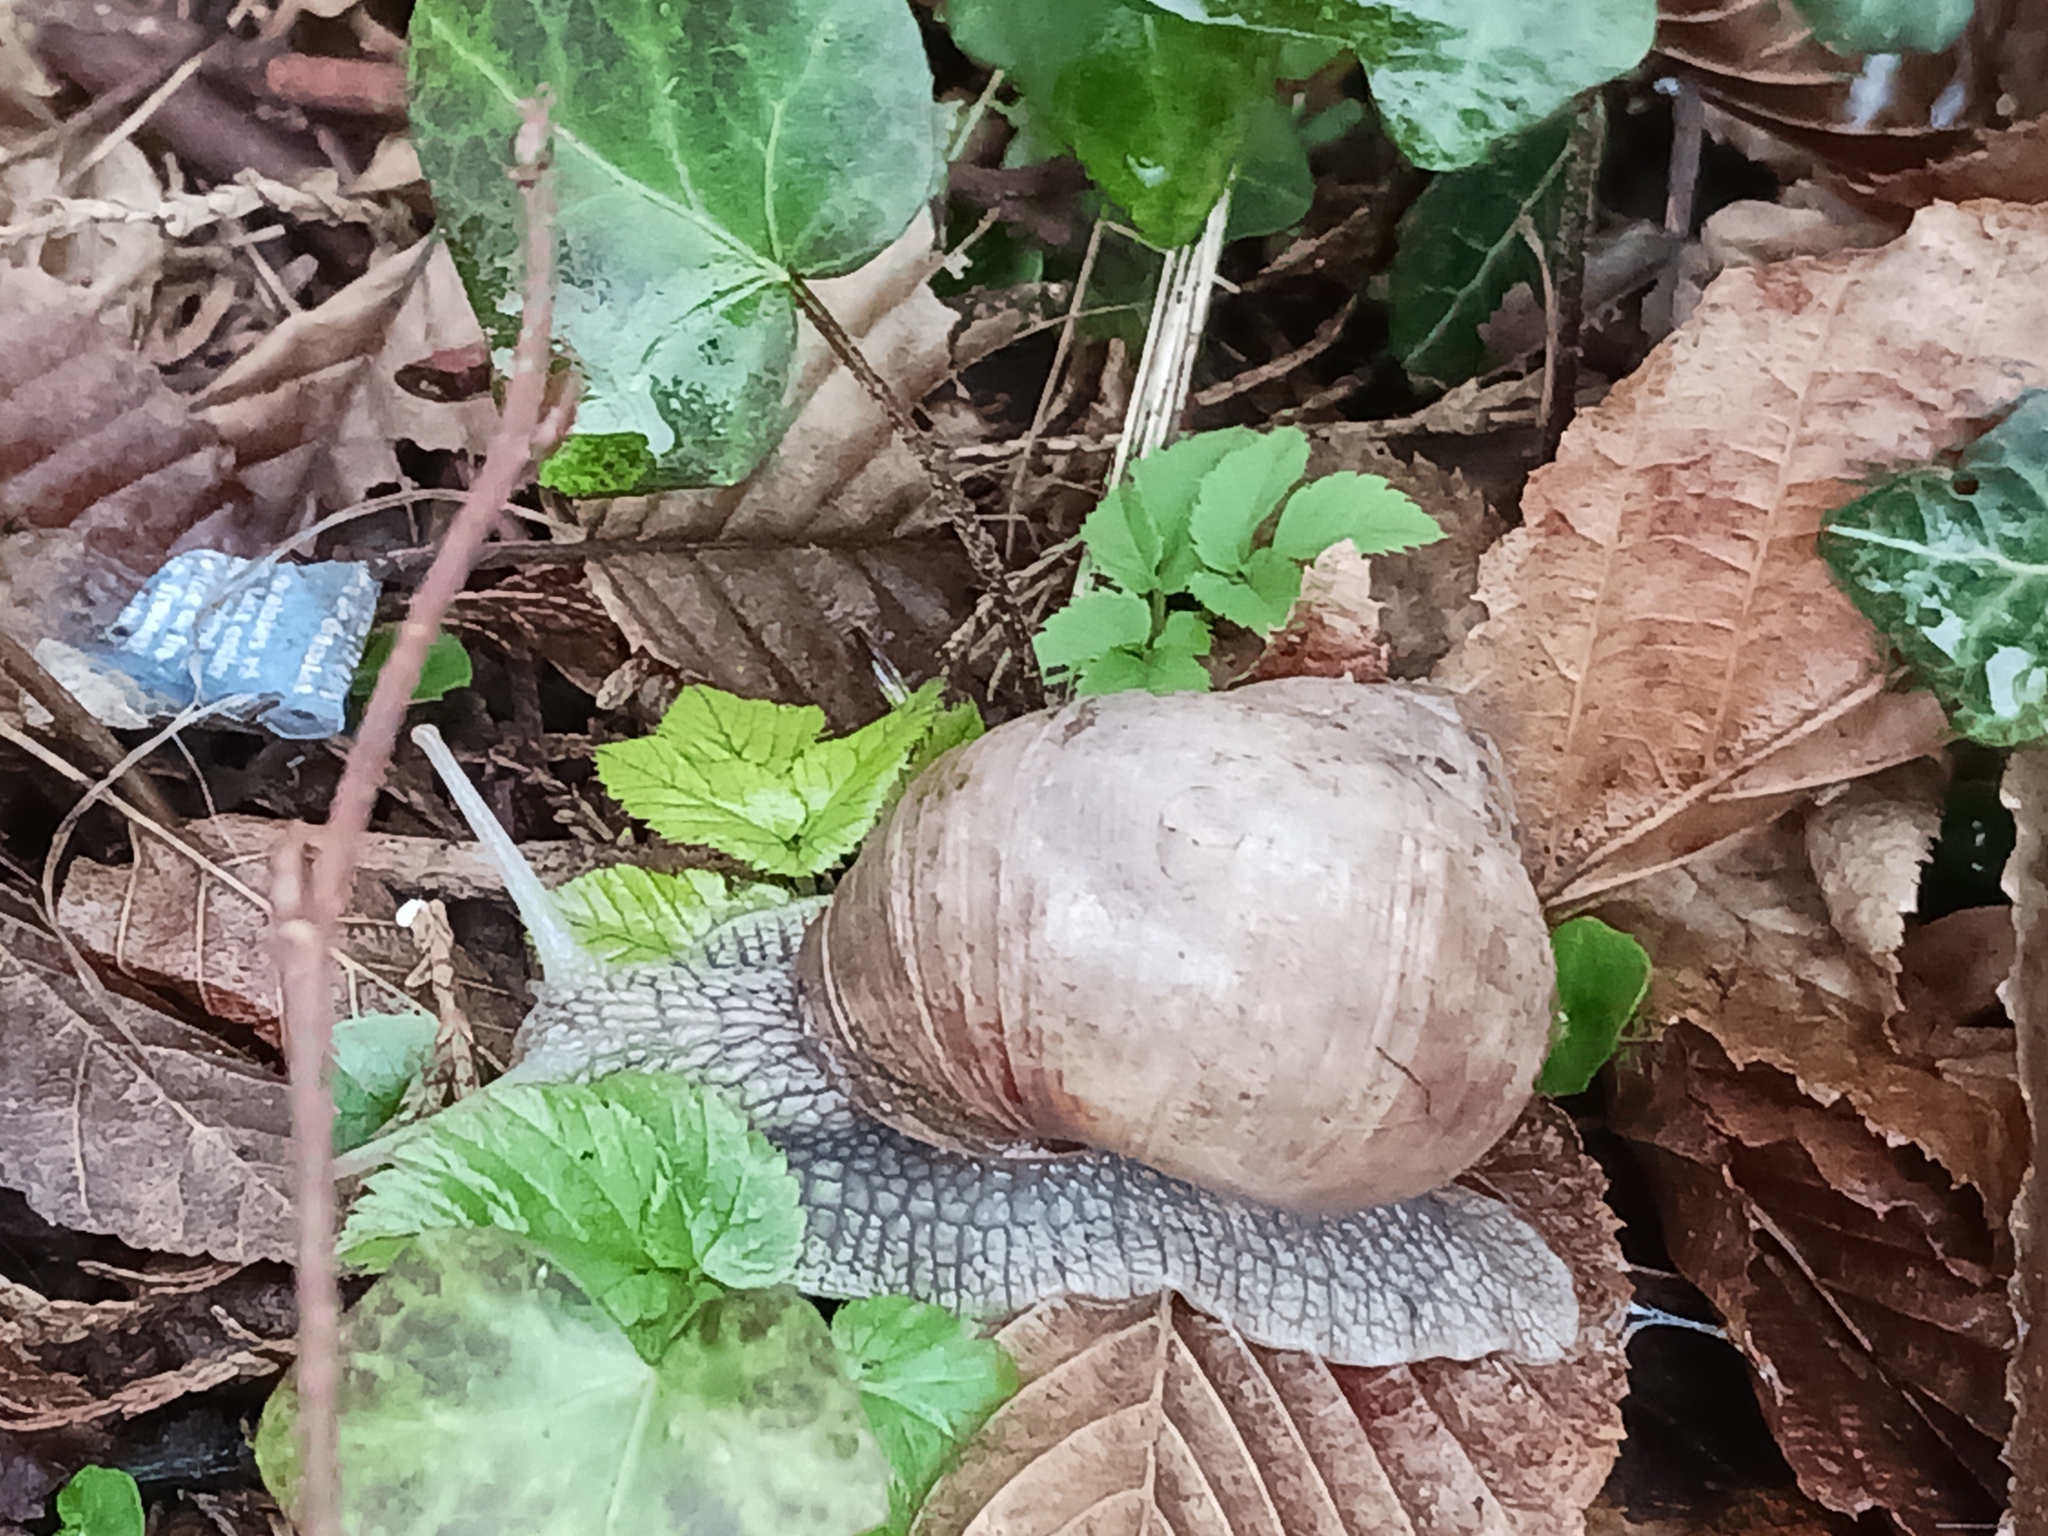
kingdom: Animalia
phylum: Mollusca
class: Gastropoda
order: Stylommatophora
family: Helicidae
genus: Helix
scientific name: Helix pomatia
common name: Roman snail
